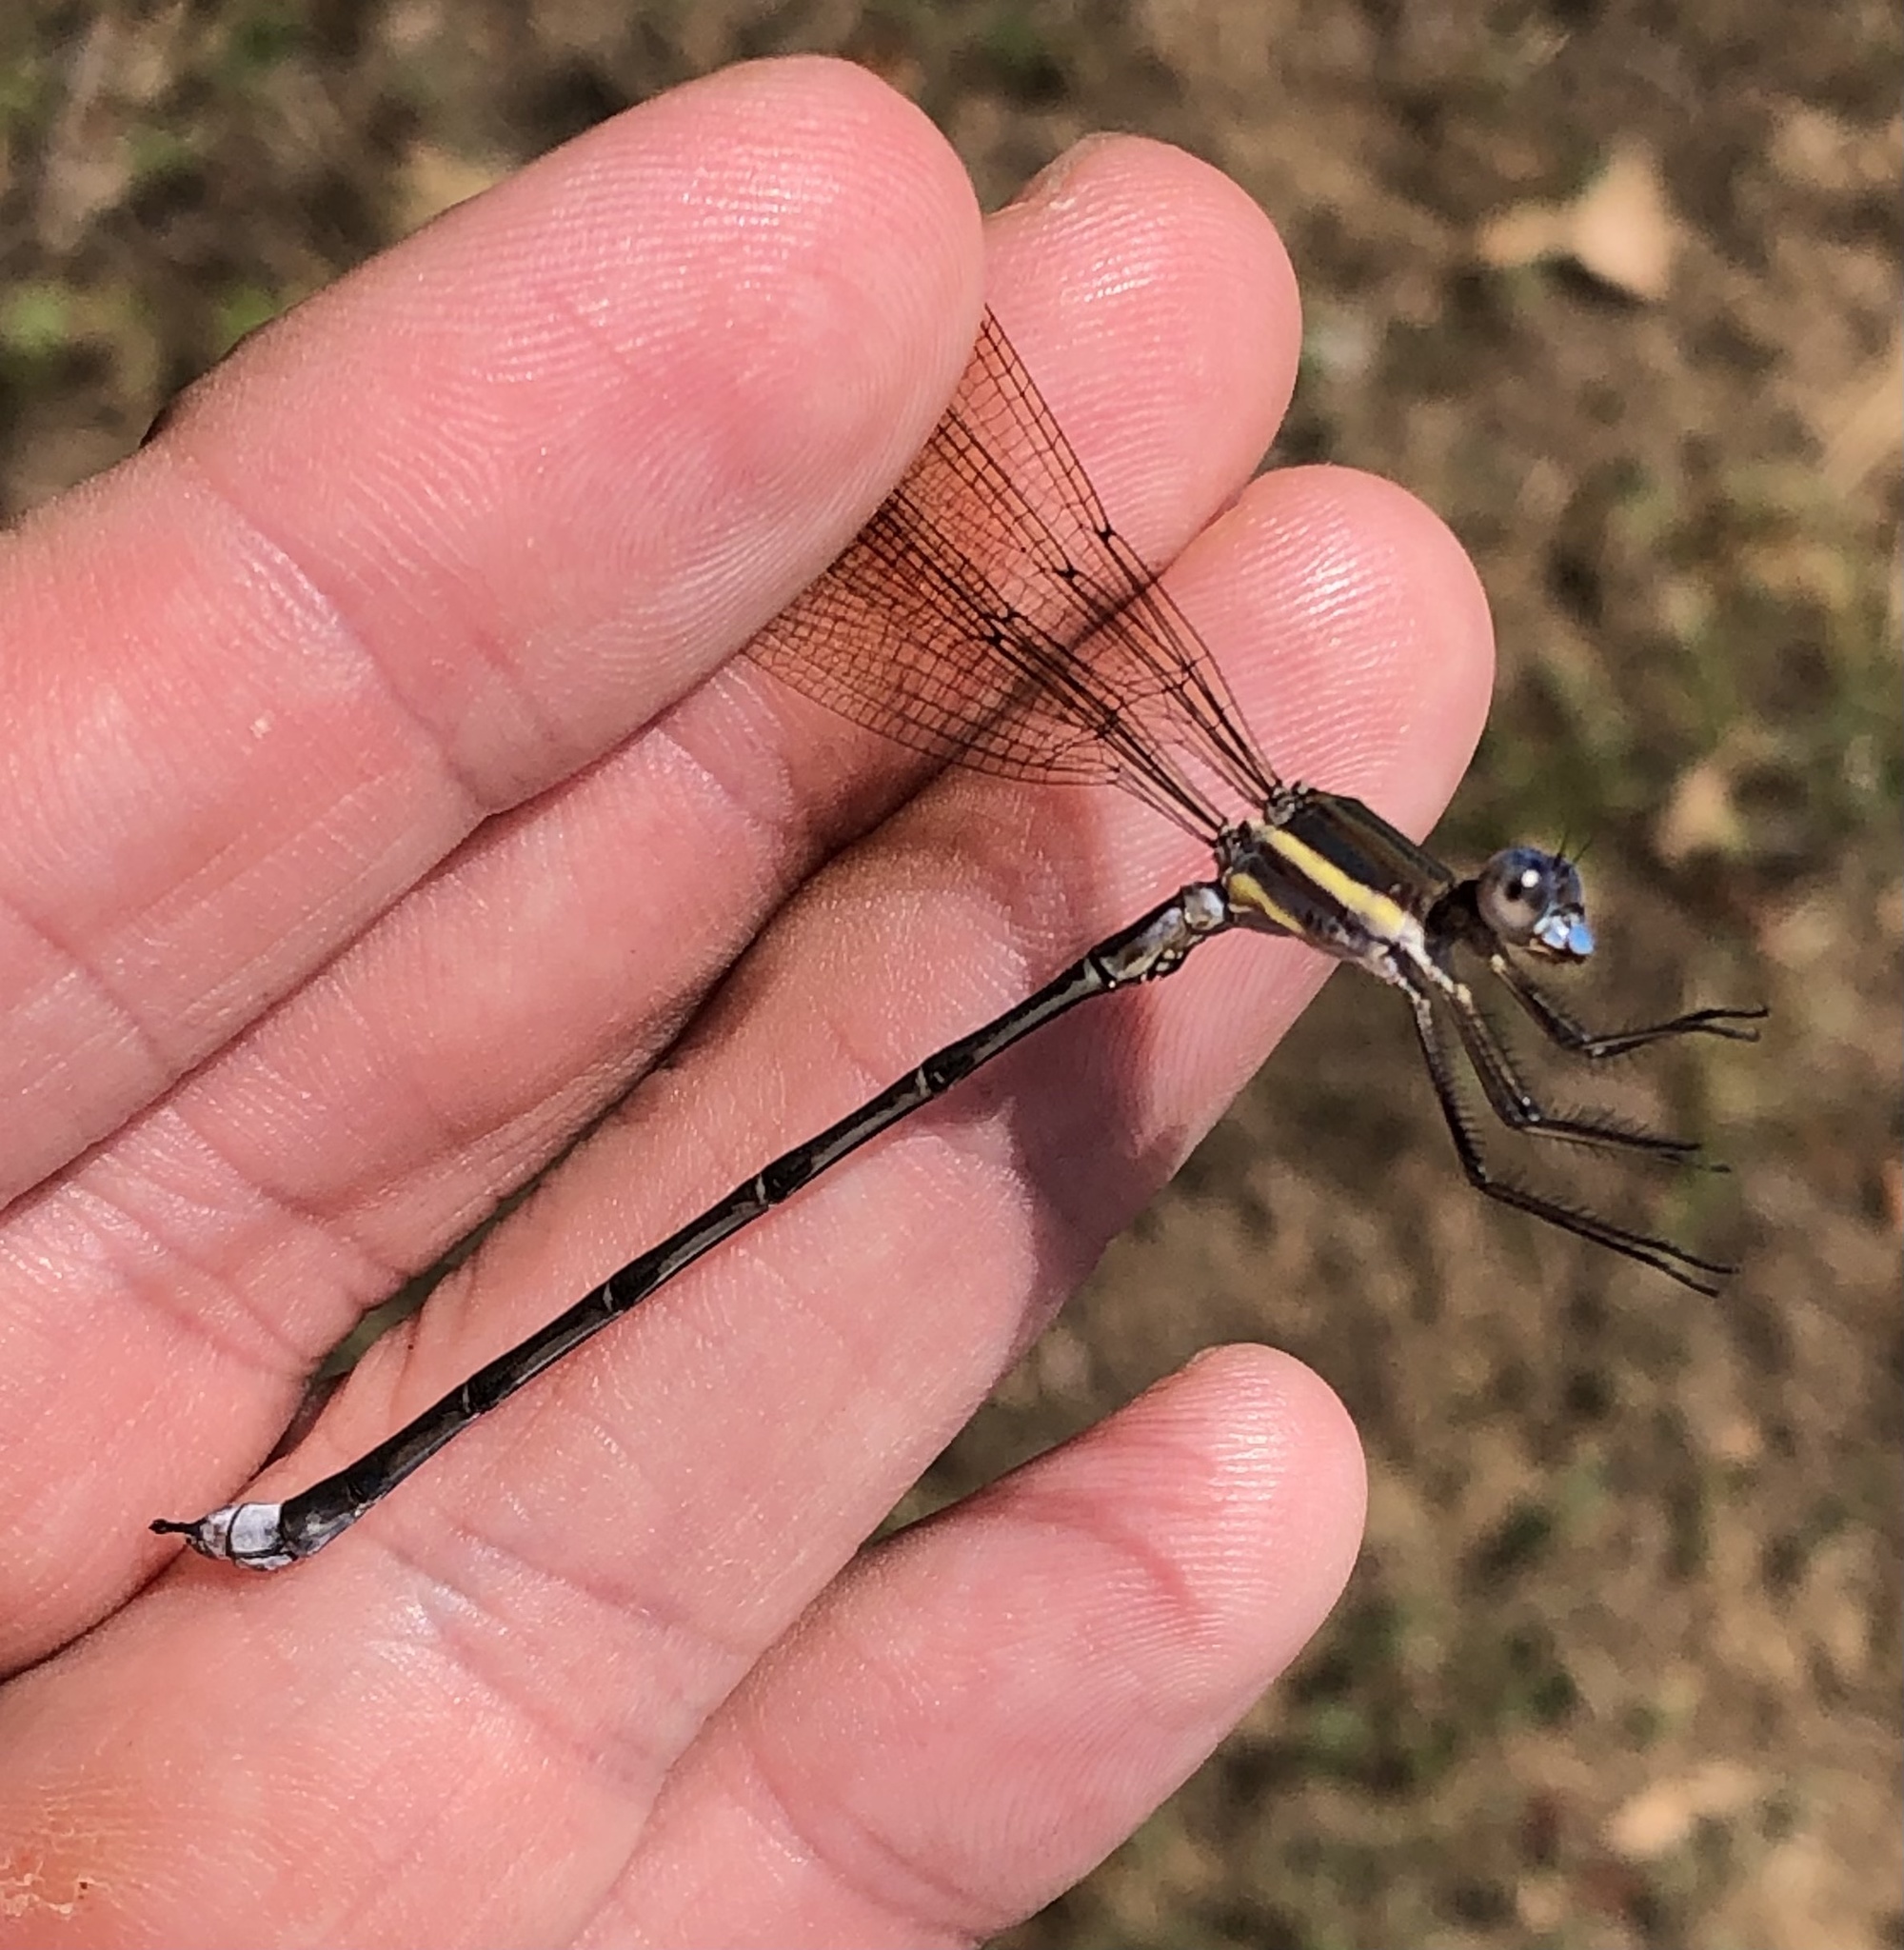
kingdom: Animalia
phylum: Arthropoda
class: Insecta
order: Odonata
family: Lestidae
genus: Archilestes
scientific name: Archilestes grandis
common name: Great spreadwing
